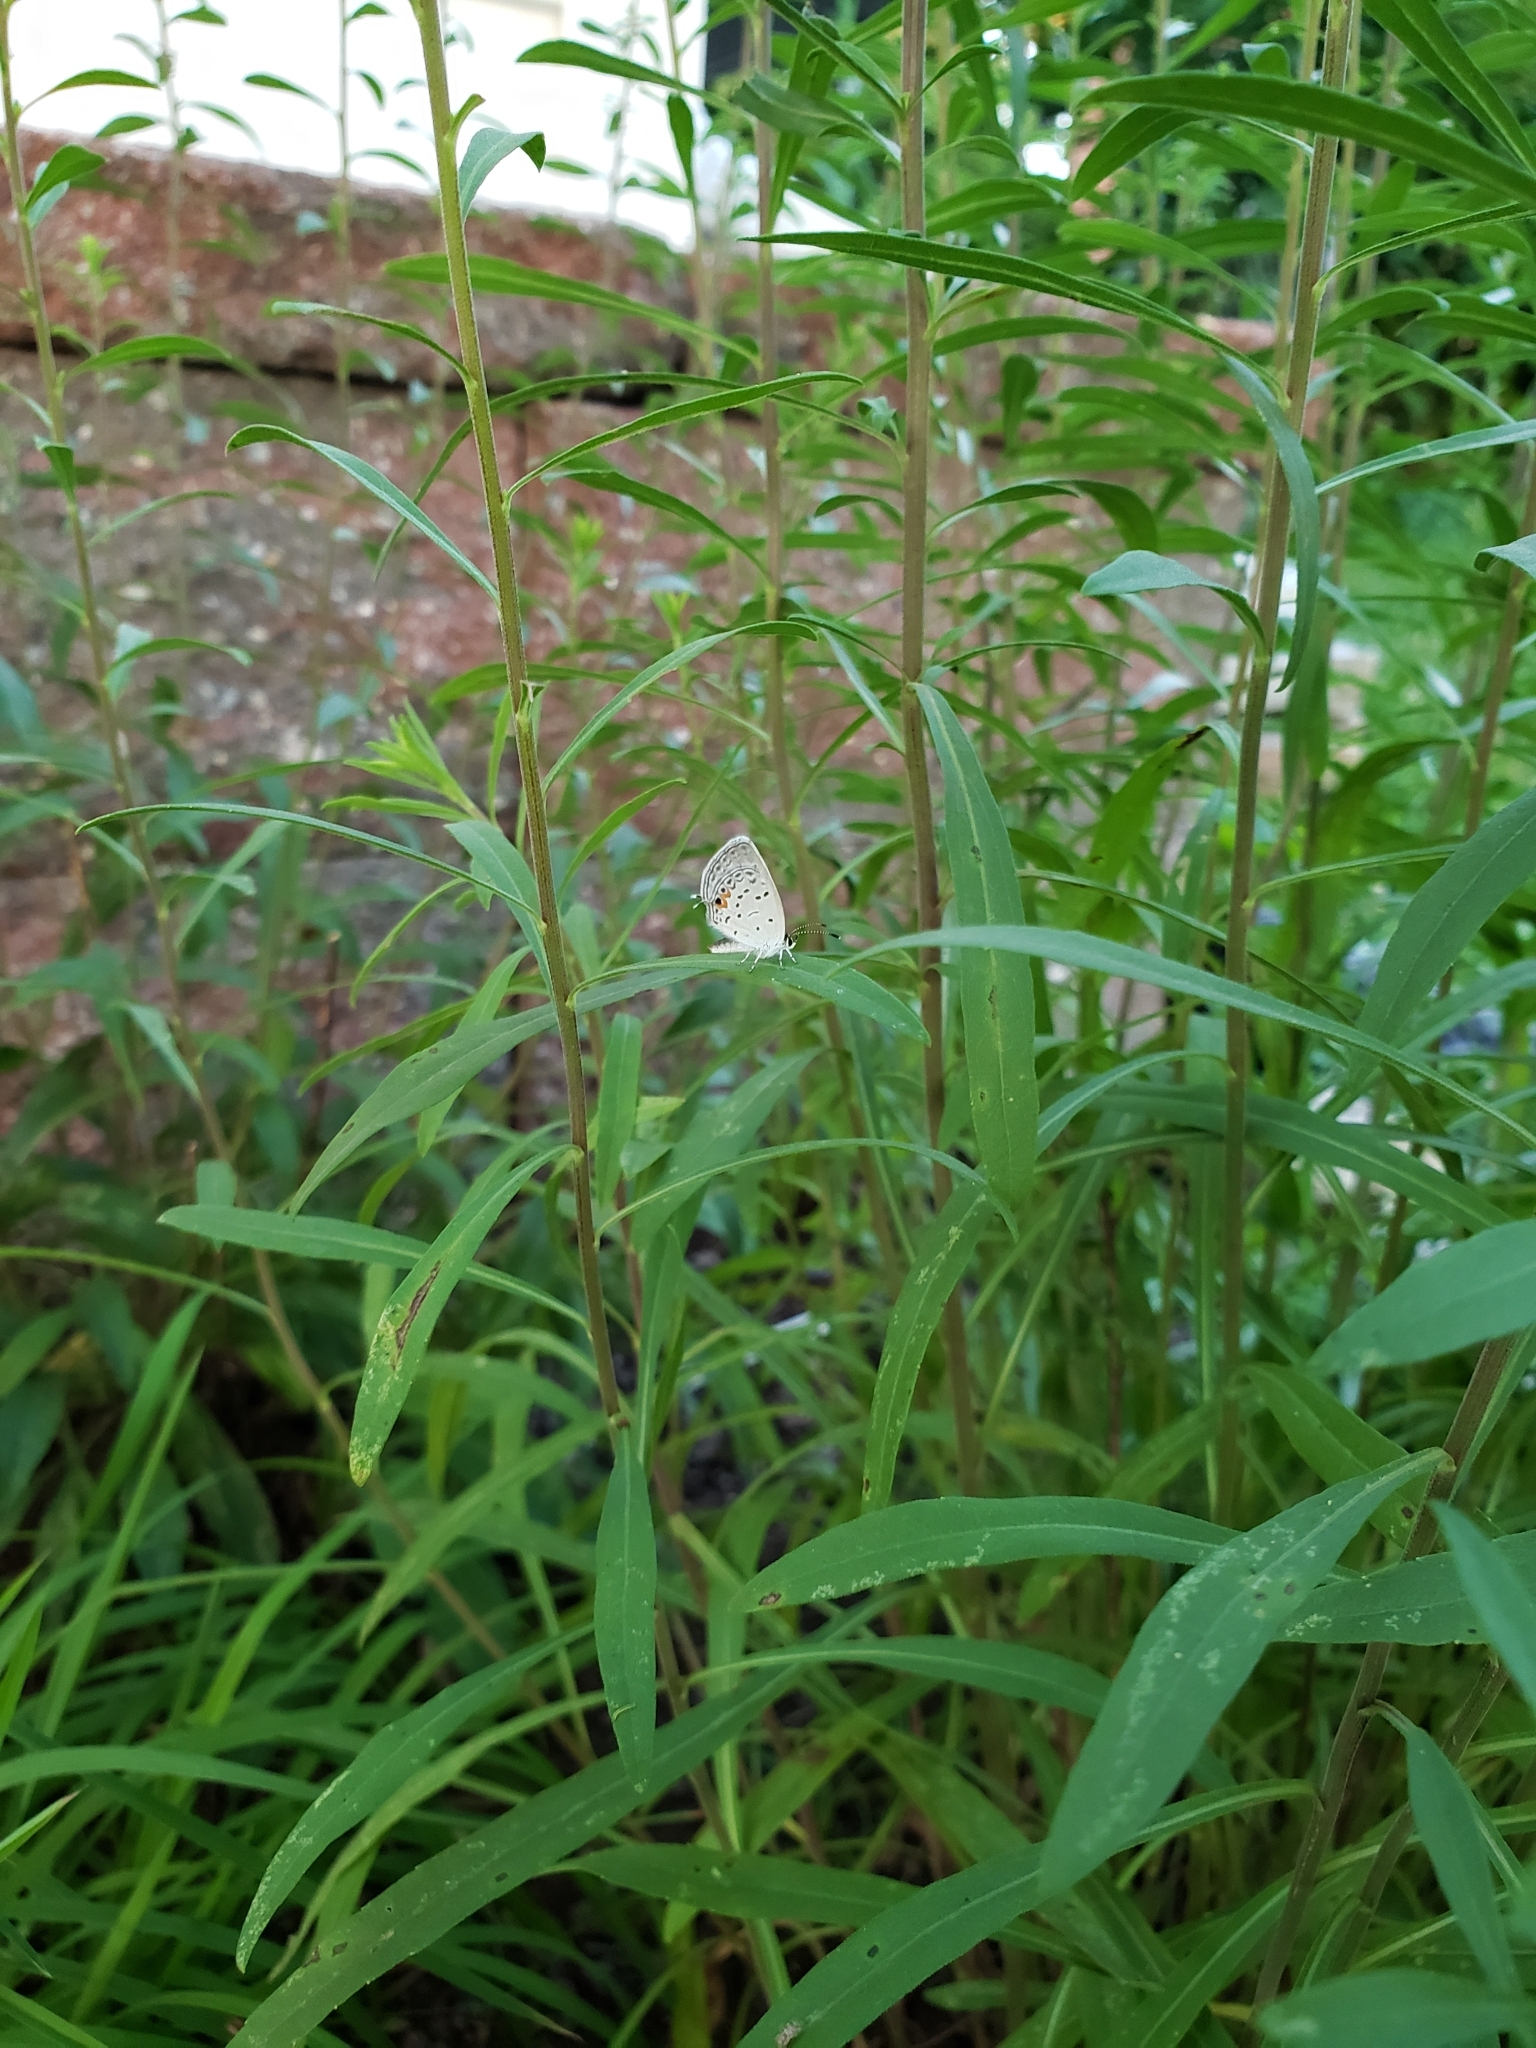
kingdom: Animalia
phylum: Arthropoda
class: Insecta
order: Lepidoptera
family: Lycaenidae
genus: Elkalyce
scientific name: Elkalyce comyntas
